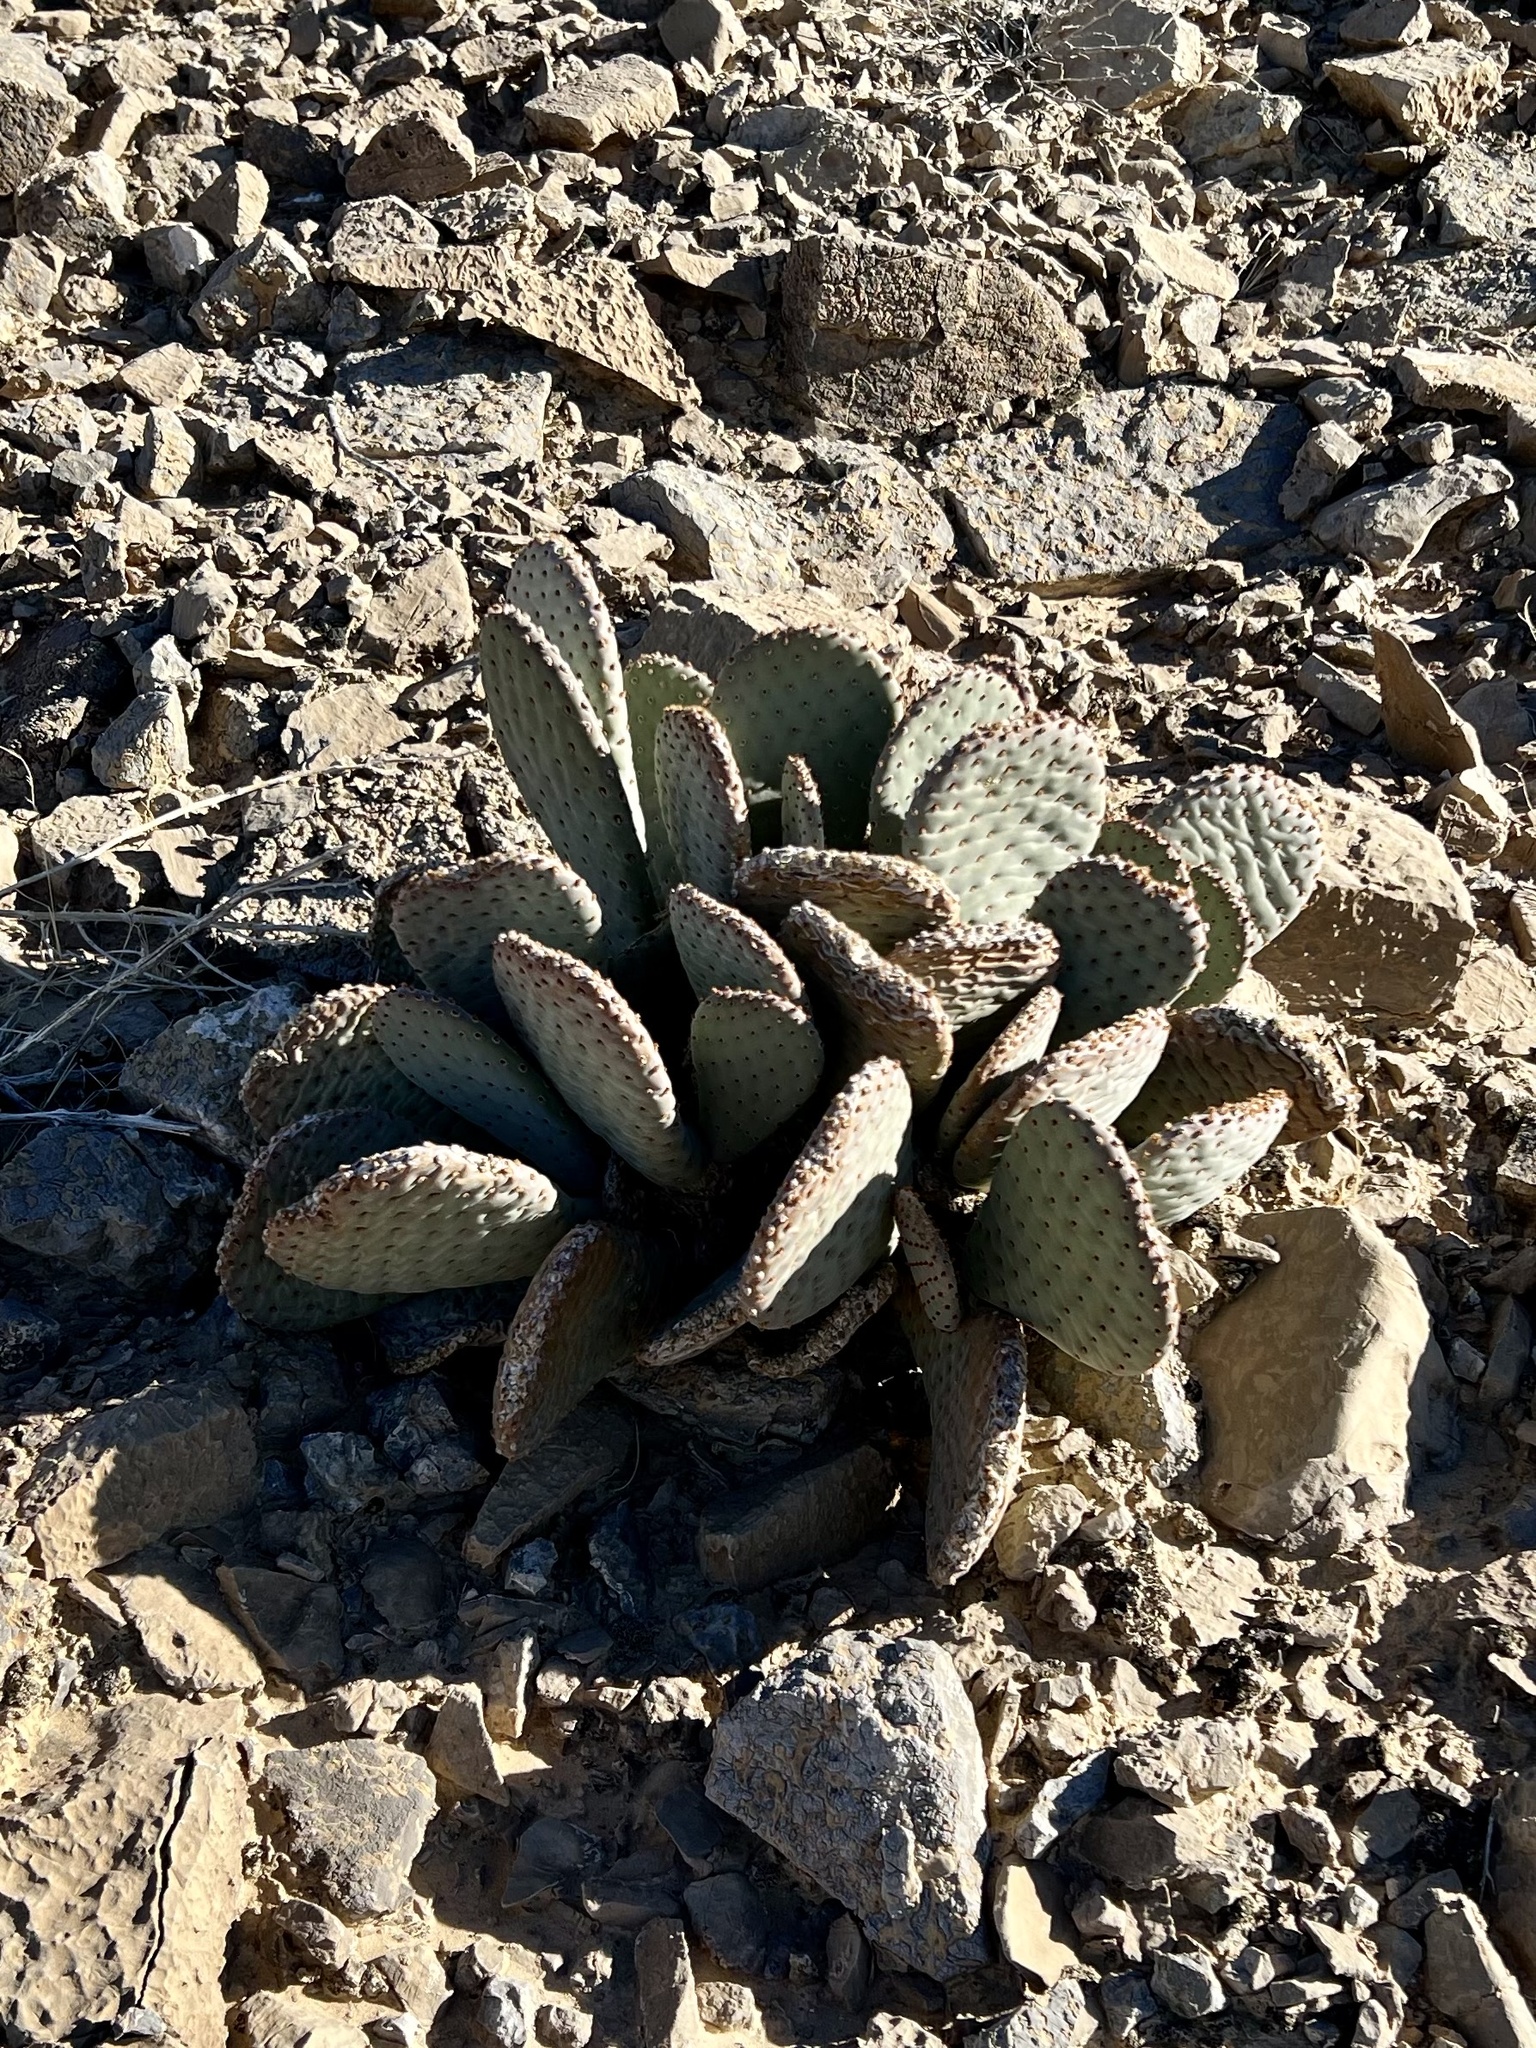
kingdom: Plantae
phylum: Tracheophyta
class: Magnoliopsida
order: Caryophyllales
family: Cactaceae
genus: Opuntia
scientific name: Opuntia basilaris
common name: Beavertail prickly-pear
